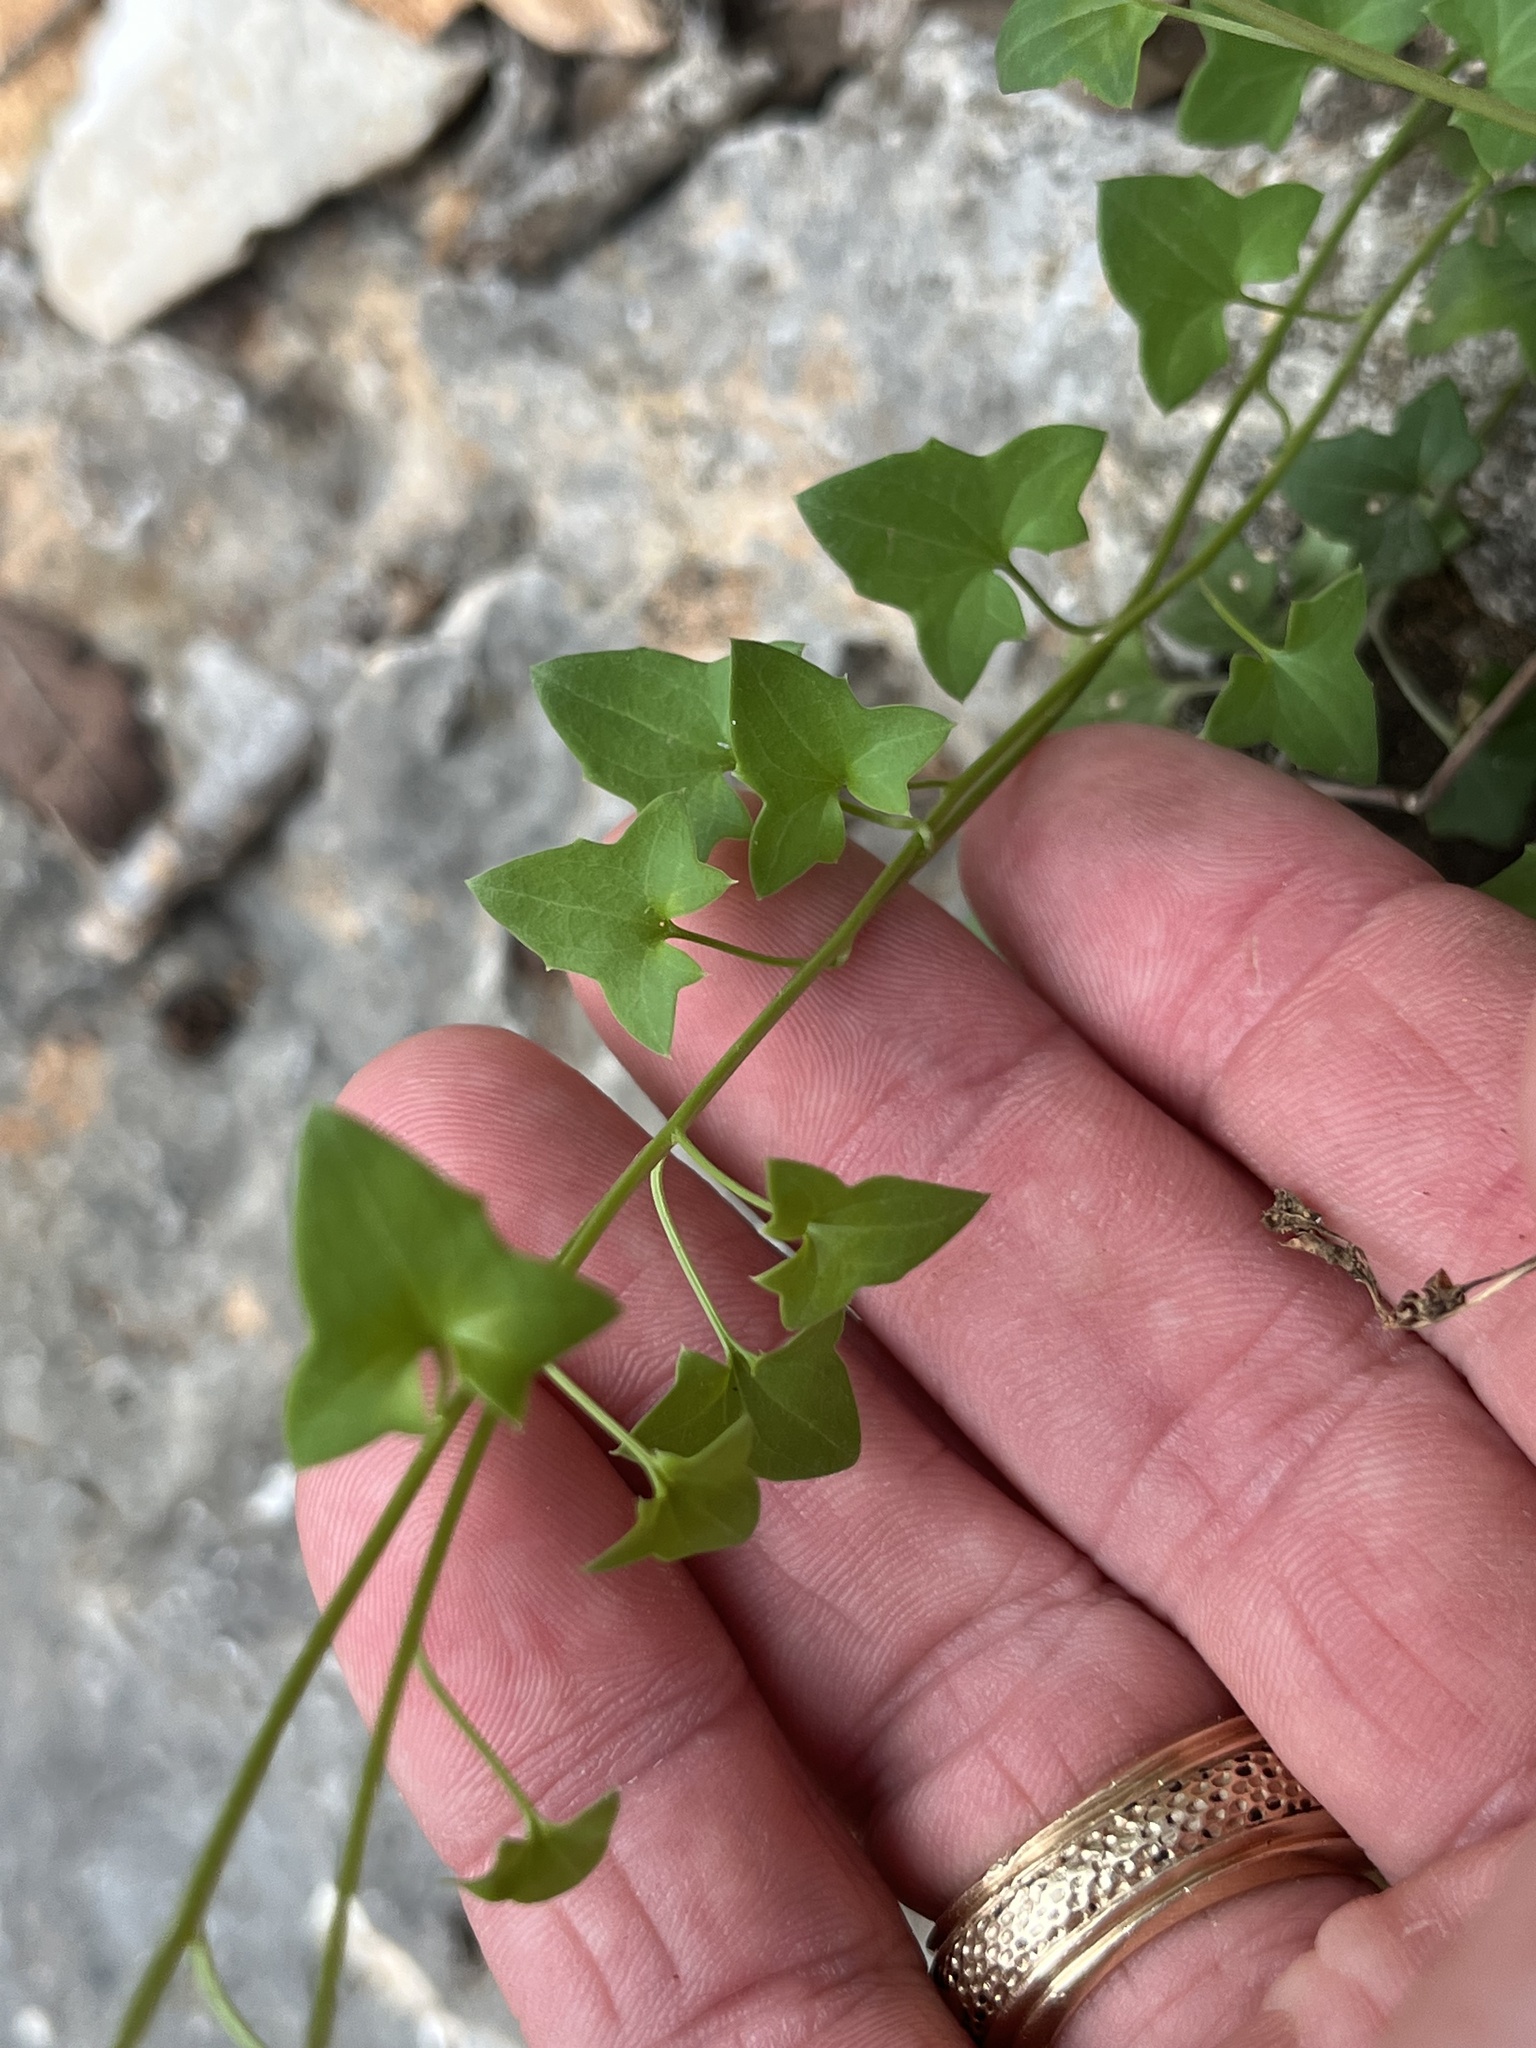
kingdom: Plantae
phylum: Tracheophyta
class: Magnoliopsida
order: Lamiales
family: Plantaginaceae
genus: Maurandella
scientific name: Maurandella antirrhiniflora
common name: Violet twining-snapdragon
